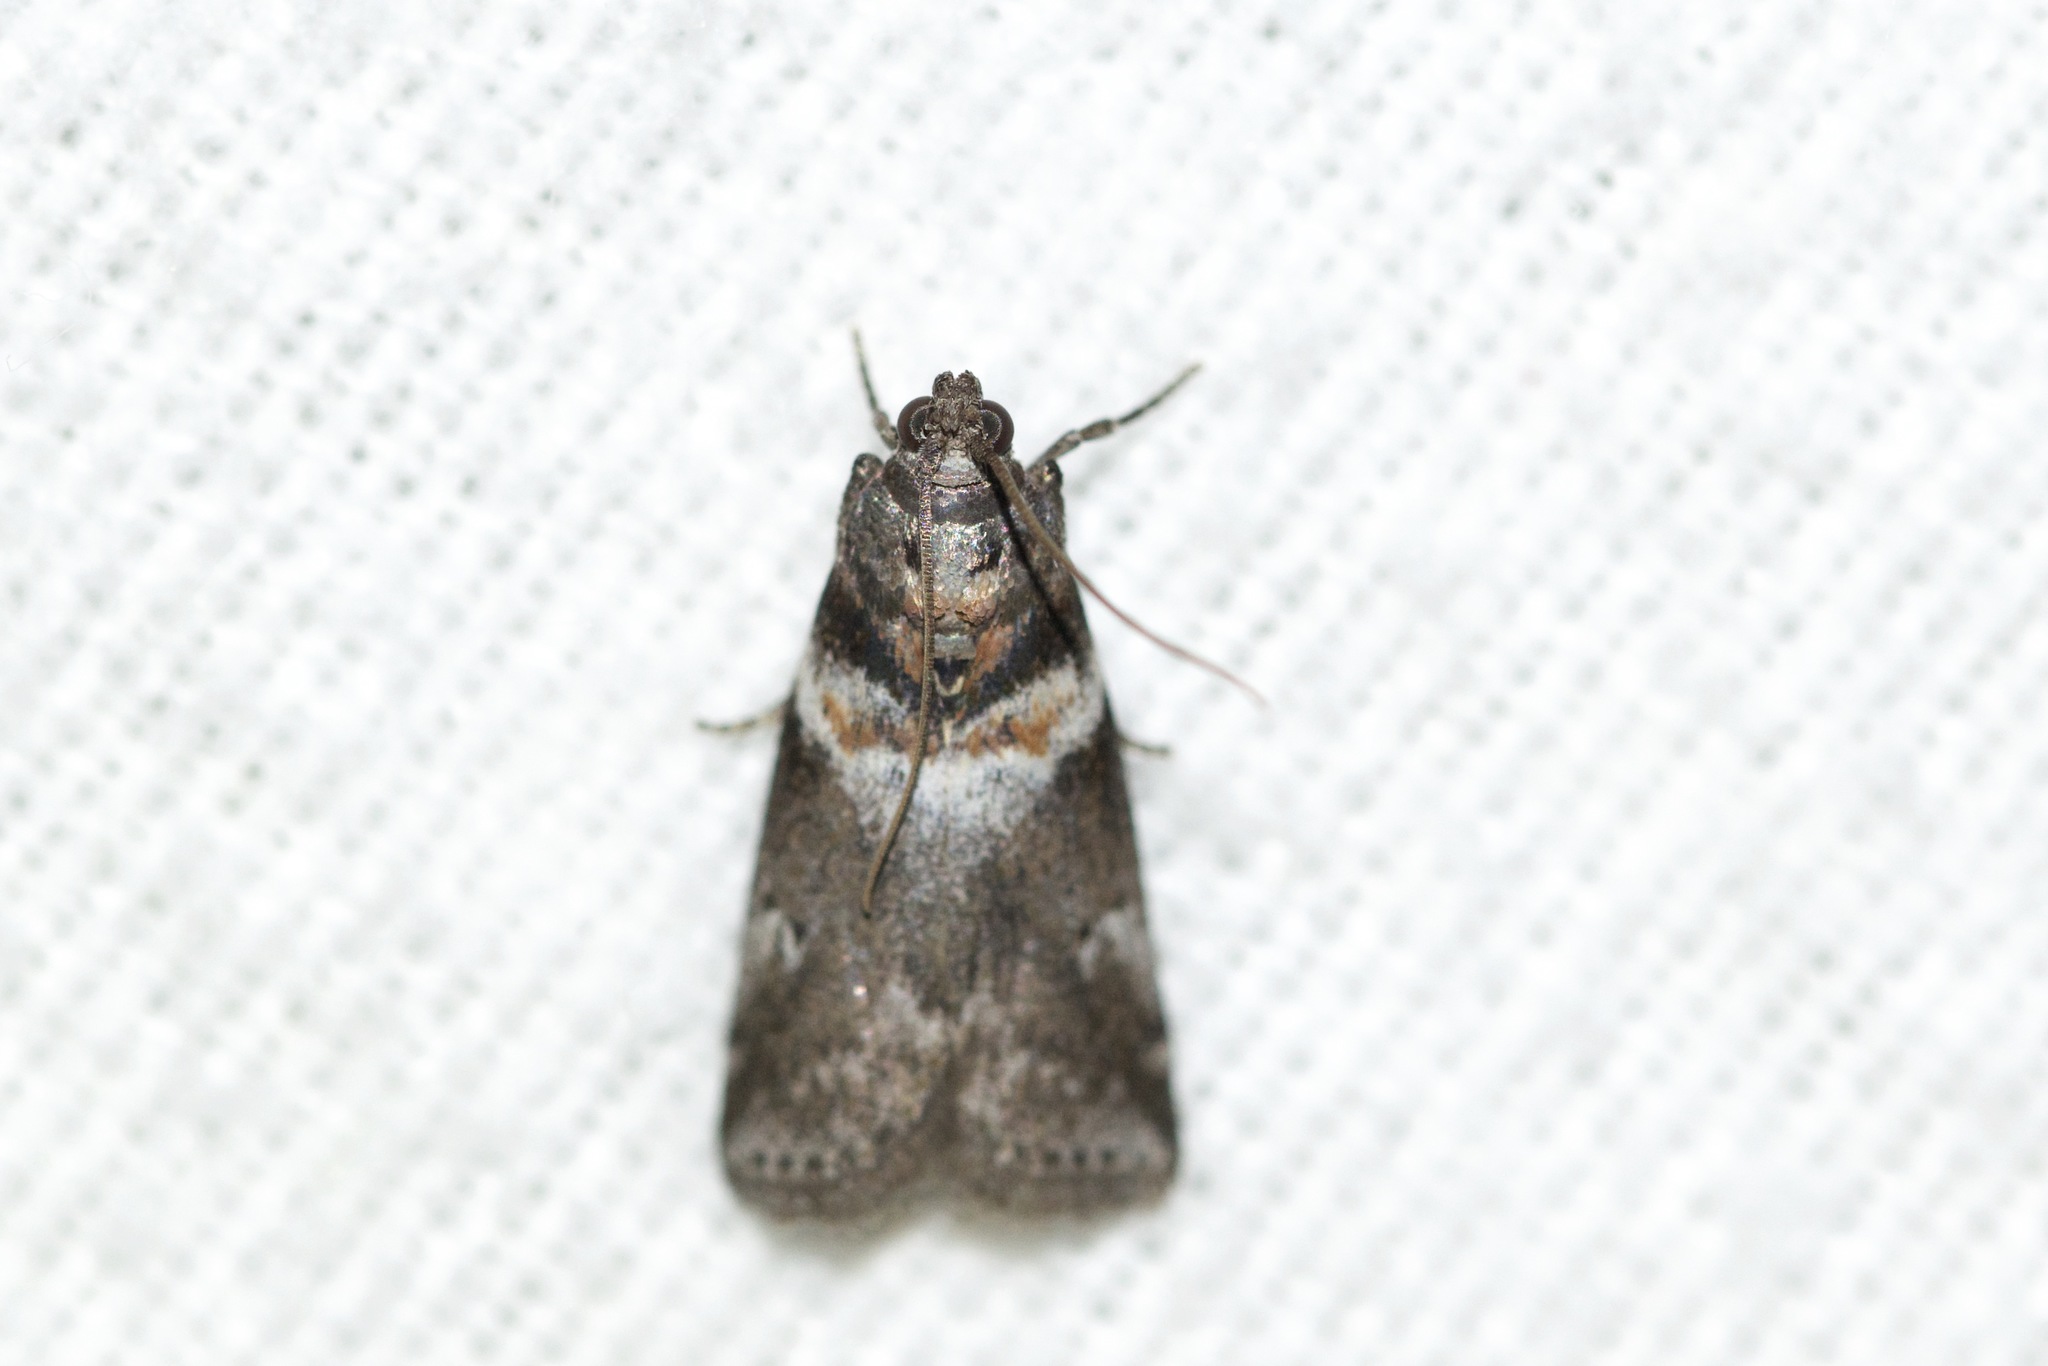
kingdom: Animalia
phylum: Arthropoda
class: Insecta
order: Lepidoptera
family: Pyralidae
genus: Salebriaria
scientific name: Salebriaria tenebrosella
